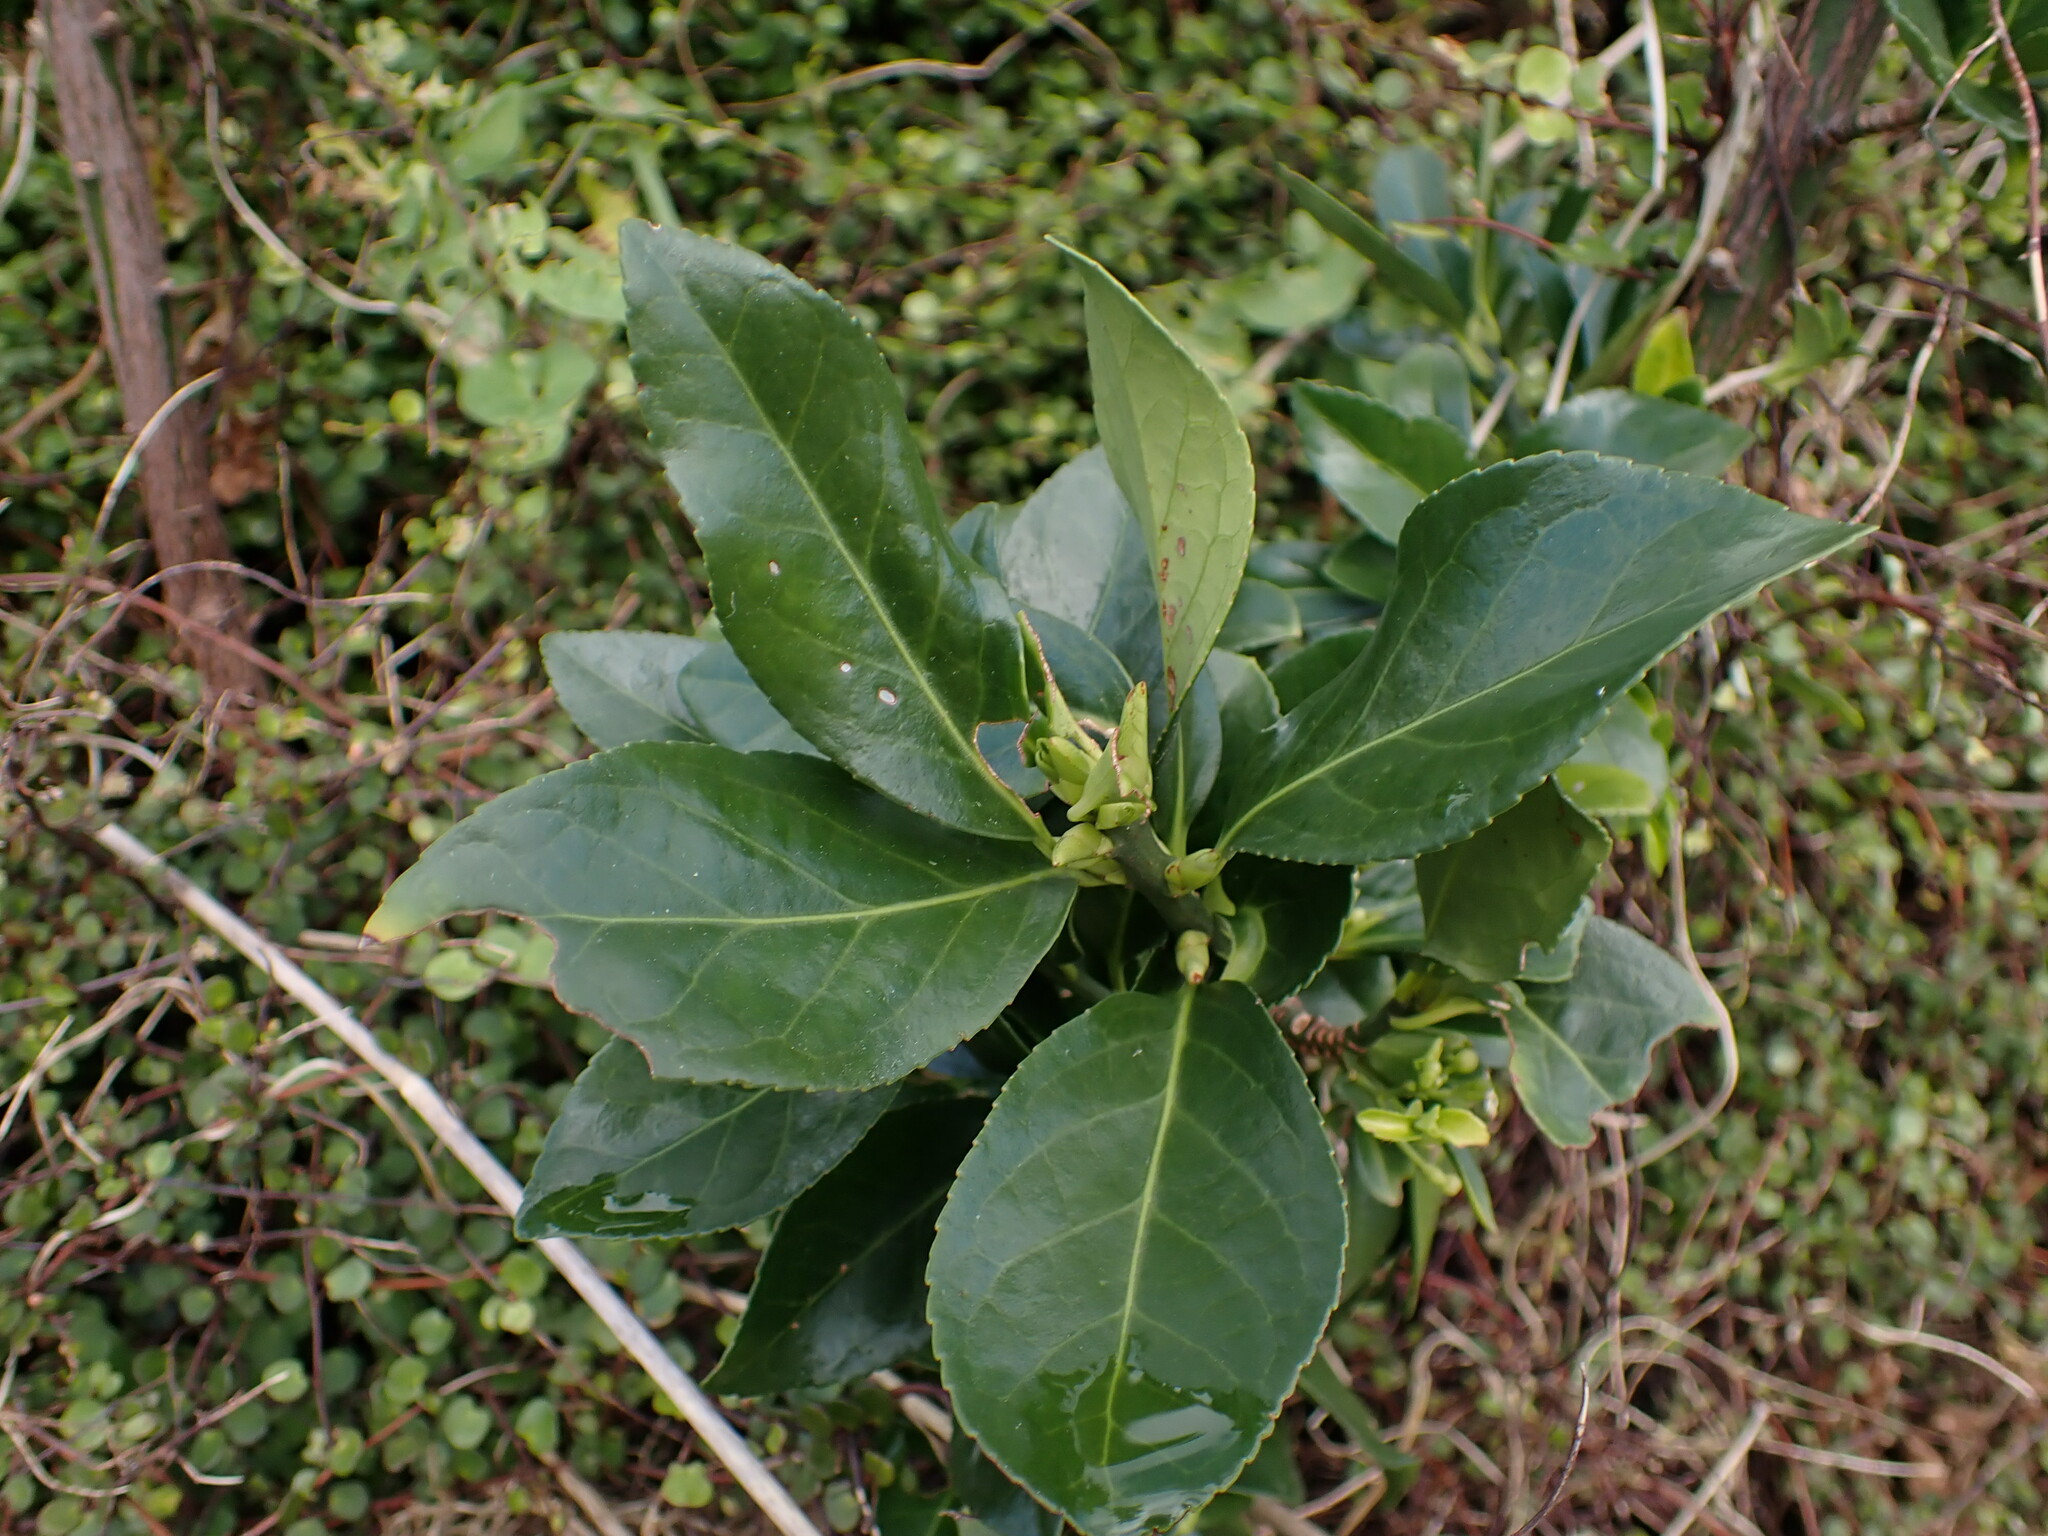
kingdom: Plantae
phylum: Tracheophyta
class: Magnoliopsida
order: Celastrales
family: Celastraceae
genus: Euonymus
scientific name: Euonymus japonicus
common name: Japanese spindletree
